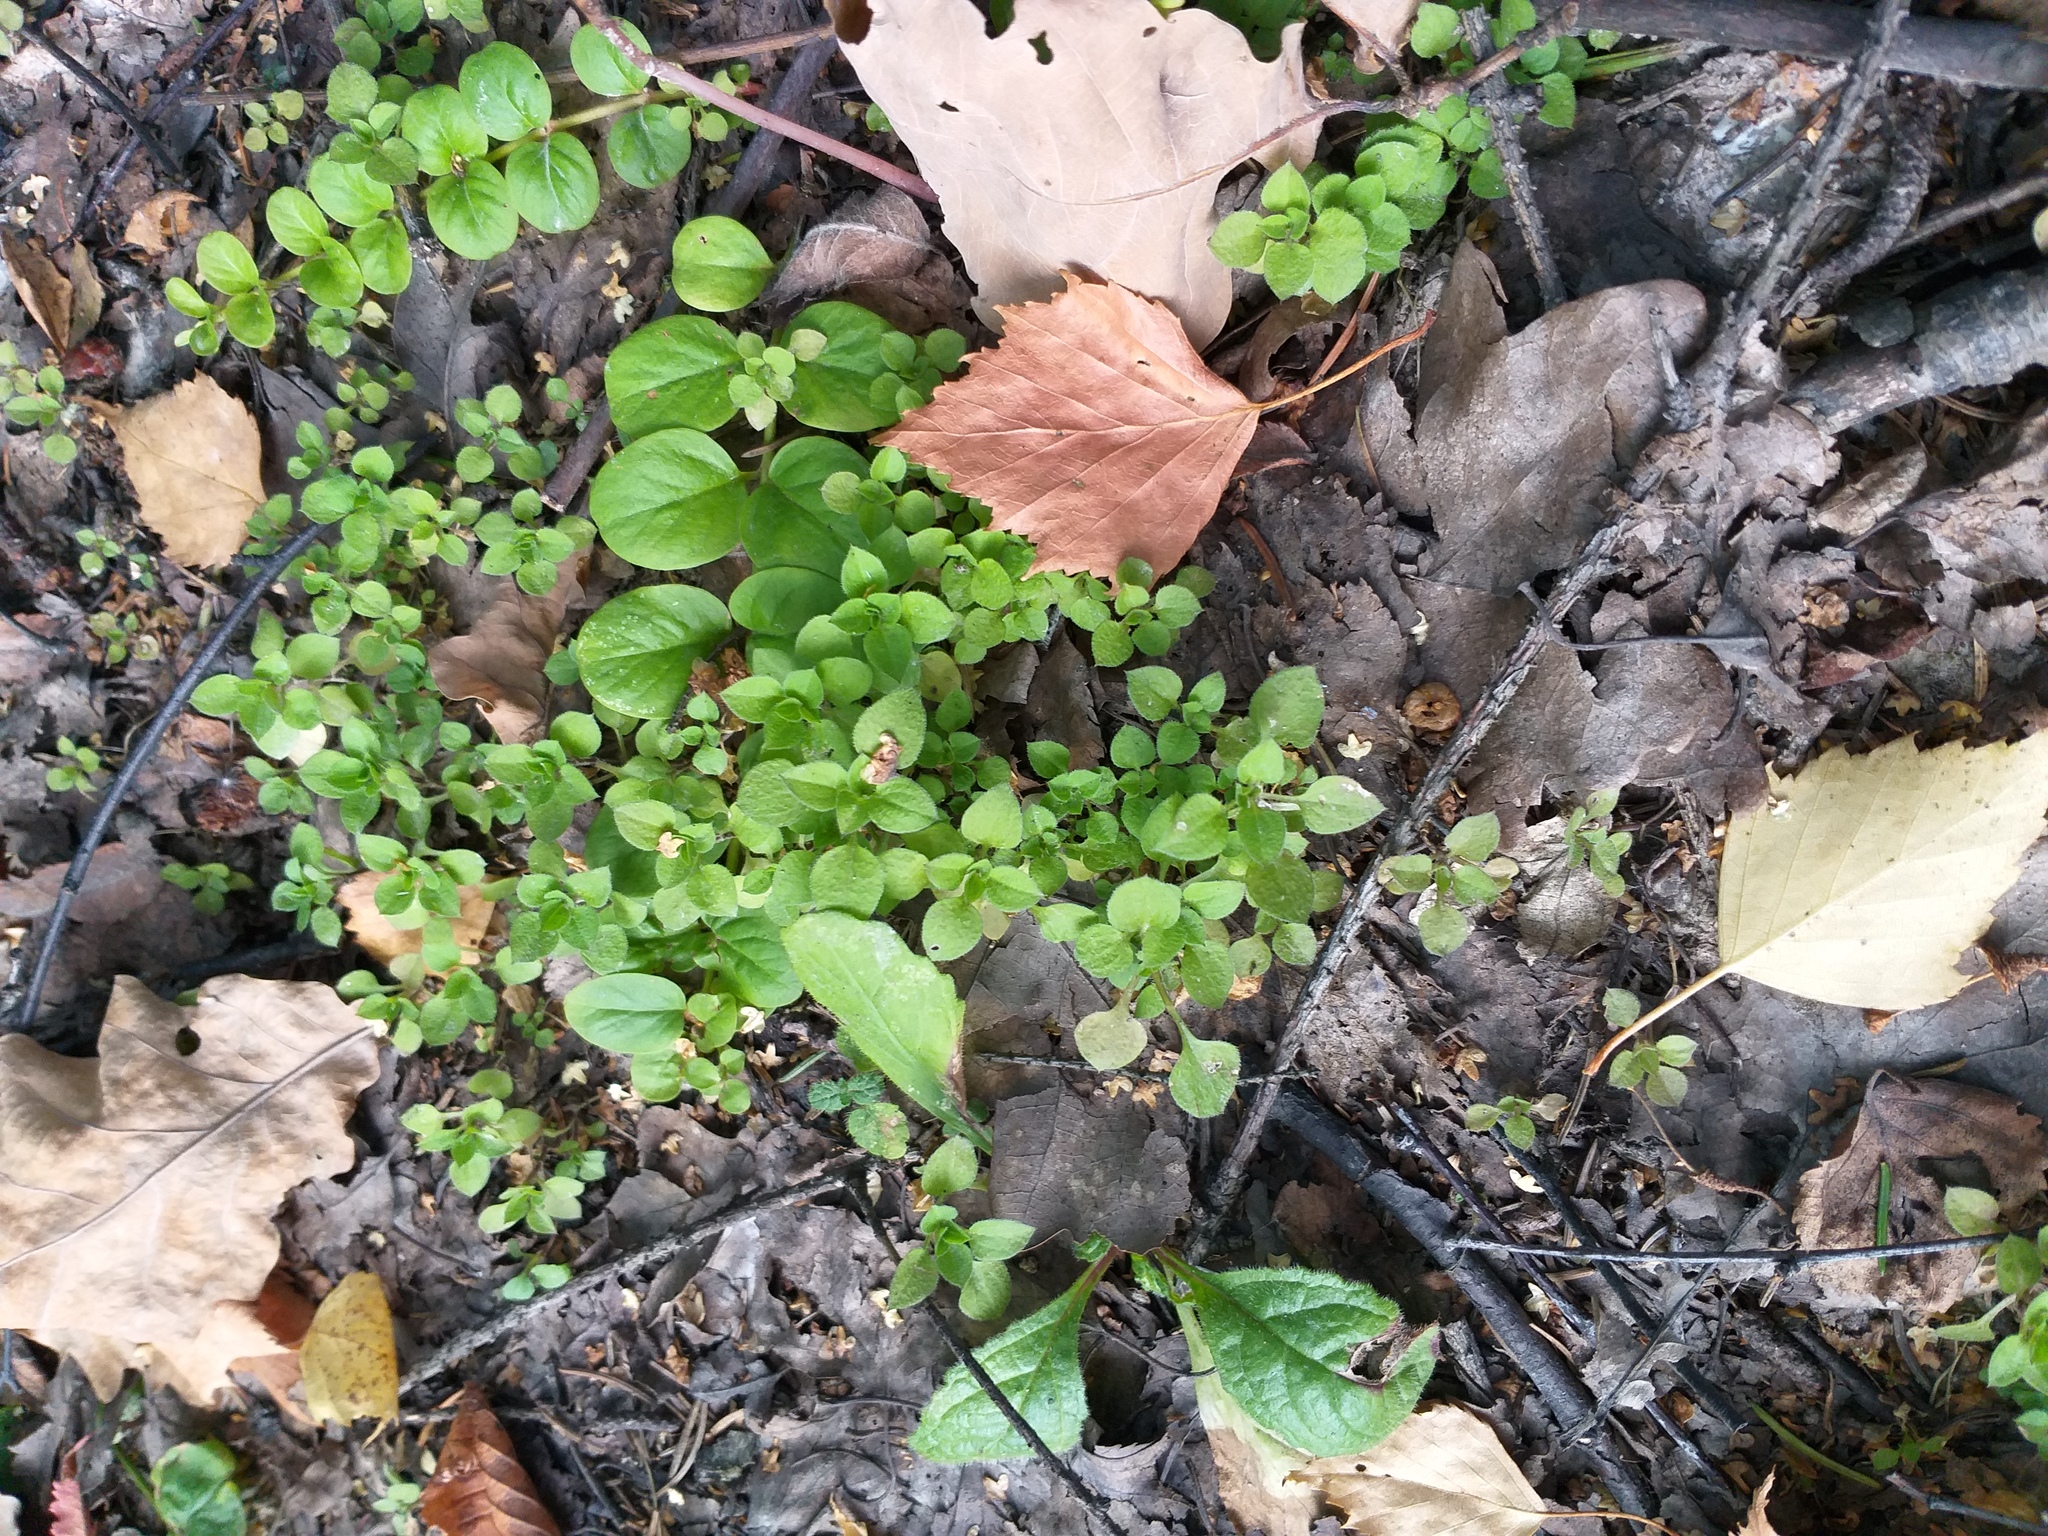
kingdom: Plantae
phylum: Tracheophyta
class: Magnoliopsida
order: Caryophyllales
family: Caryophyllaceae
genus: Moehringia
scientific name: Moehringia trinervia
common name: Three-nerved sandwort
